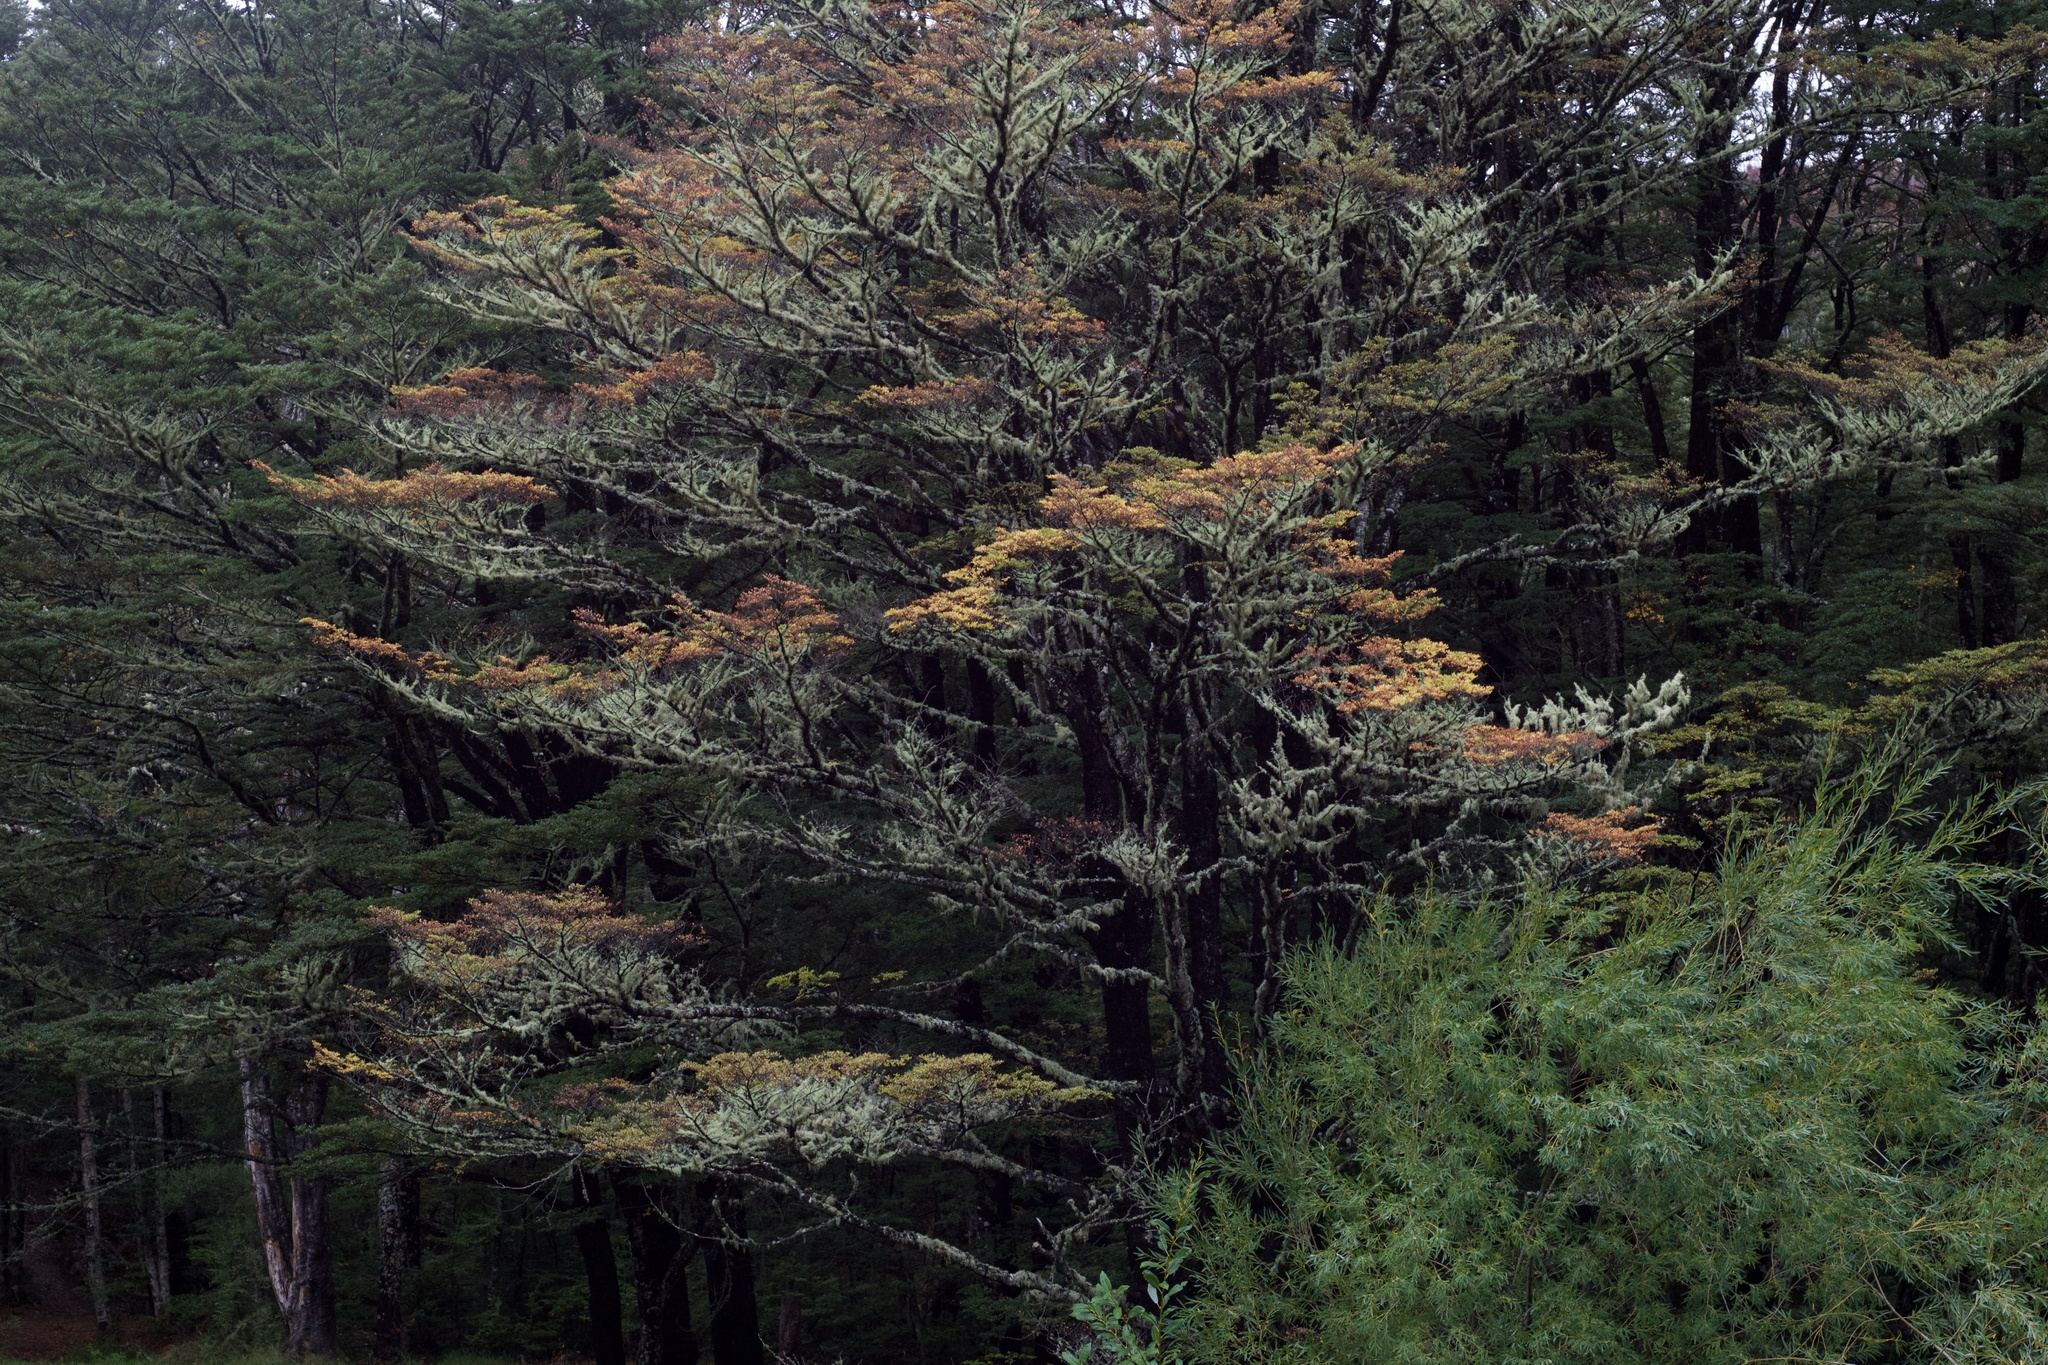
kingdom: Plantae
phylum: Tracheophyta
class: Magnoliopsida
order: Fagales
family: Nothofagaceae
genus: Nothofagus
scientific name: Nothofagus cliffortioides
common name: Mountain beech
